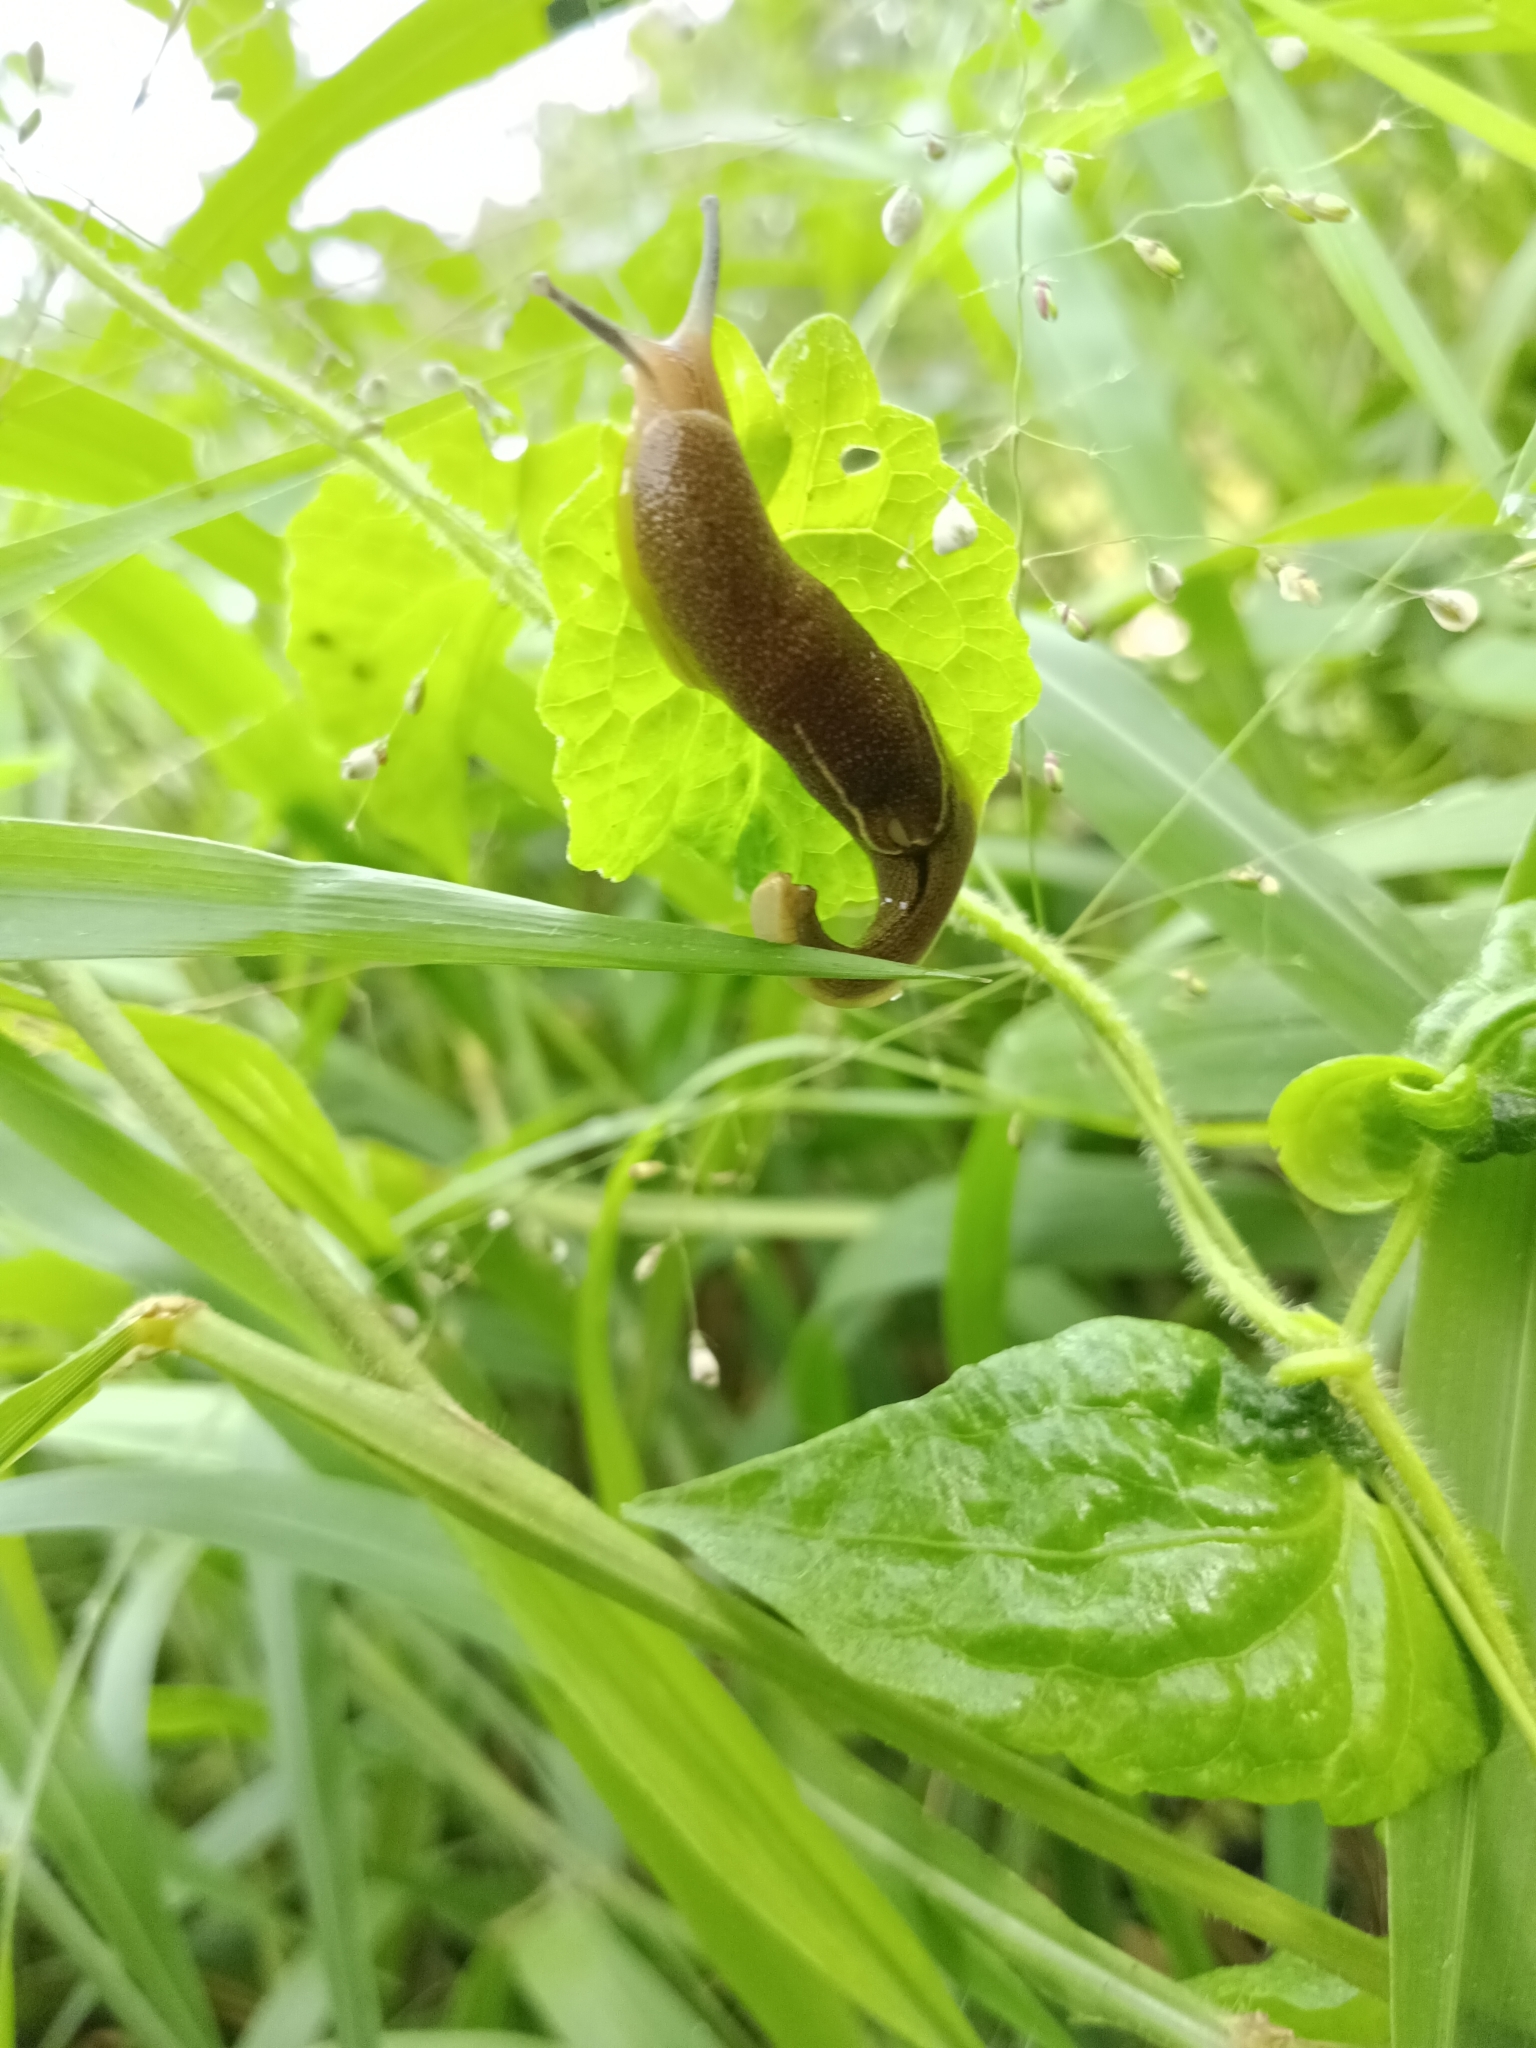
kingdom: Animalia
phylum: Mollusca
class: Gastropoda
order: Stylommatophora
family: Ariophantidae
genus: Mariaella
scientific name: Mariaella dussumieri
